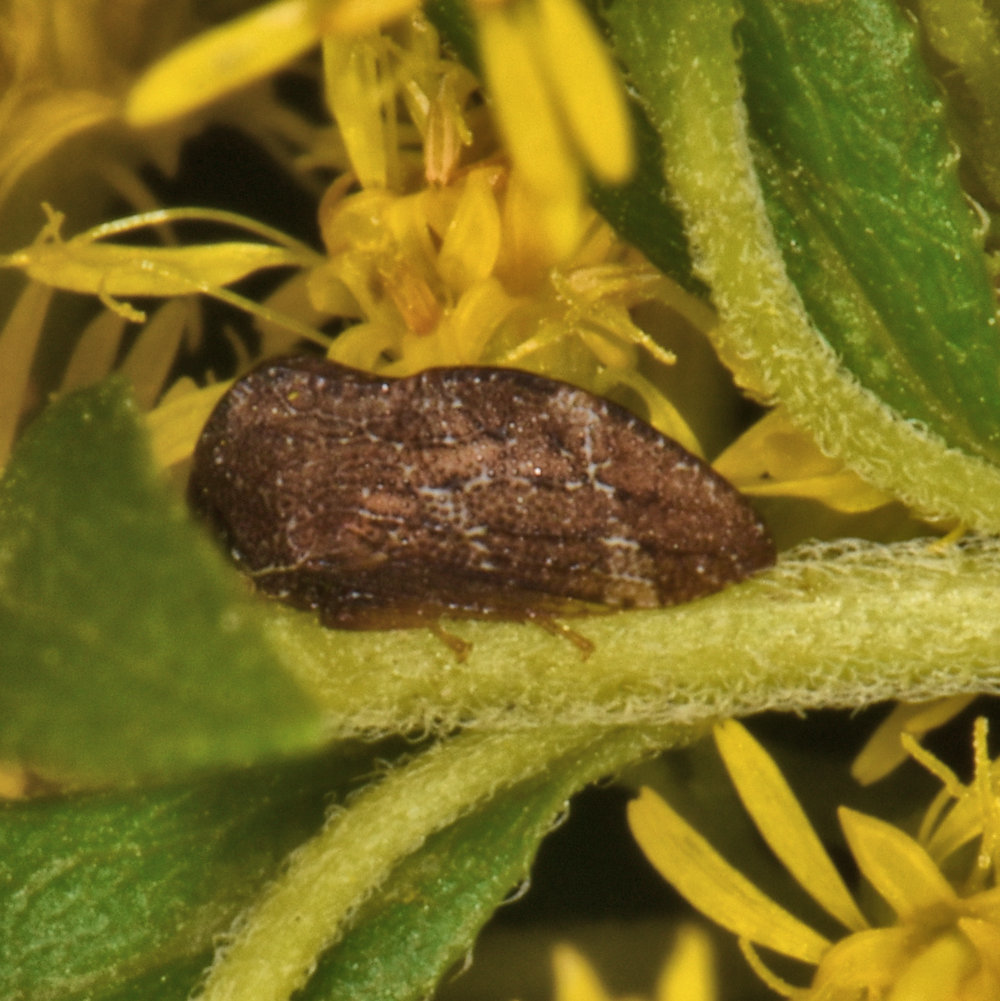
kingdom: Animalia
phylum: Arthropoda
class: Insecta
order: Hemiptera
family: Membracidae
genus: Publilia
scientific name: Publilia concava
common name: Aster treehopper
